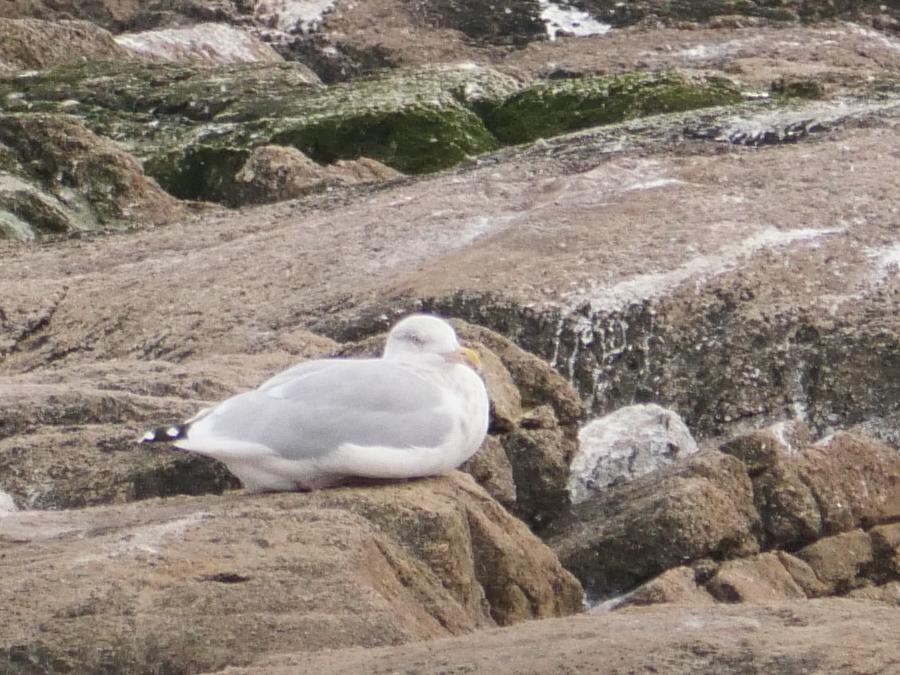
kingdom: Animalia
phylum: Chordata
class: Aves
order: Charadriiformes
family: Laridae
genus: Larus
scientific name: Larus argentatus
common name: Herring gull
